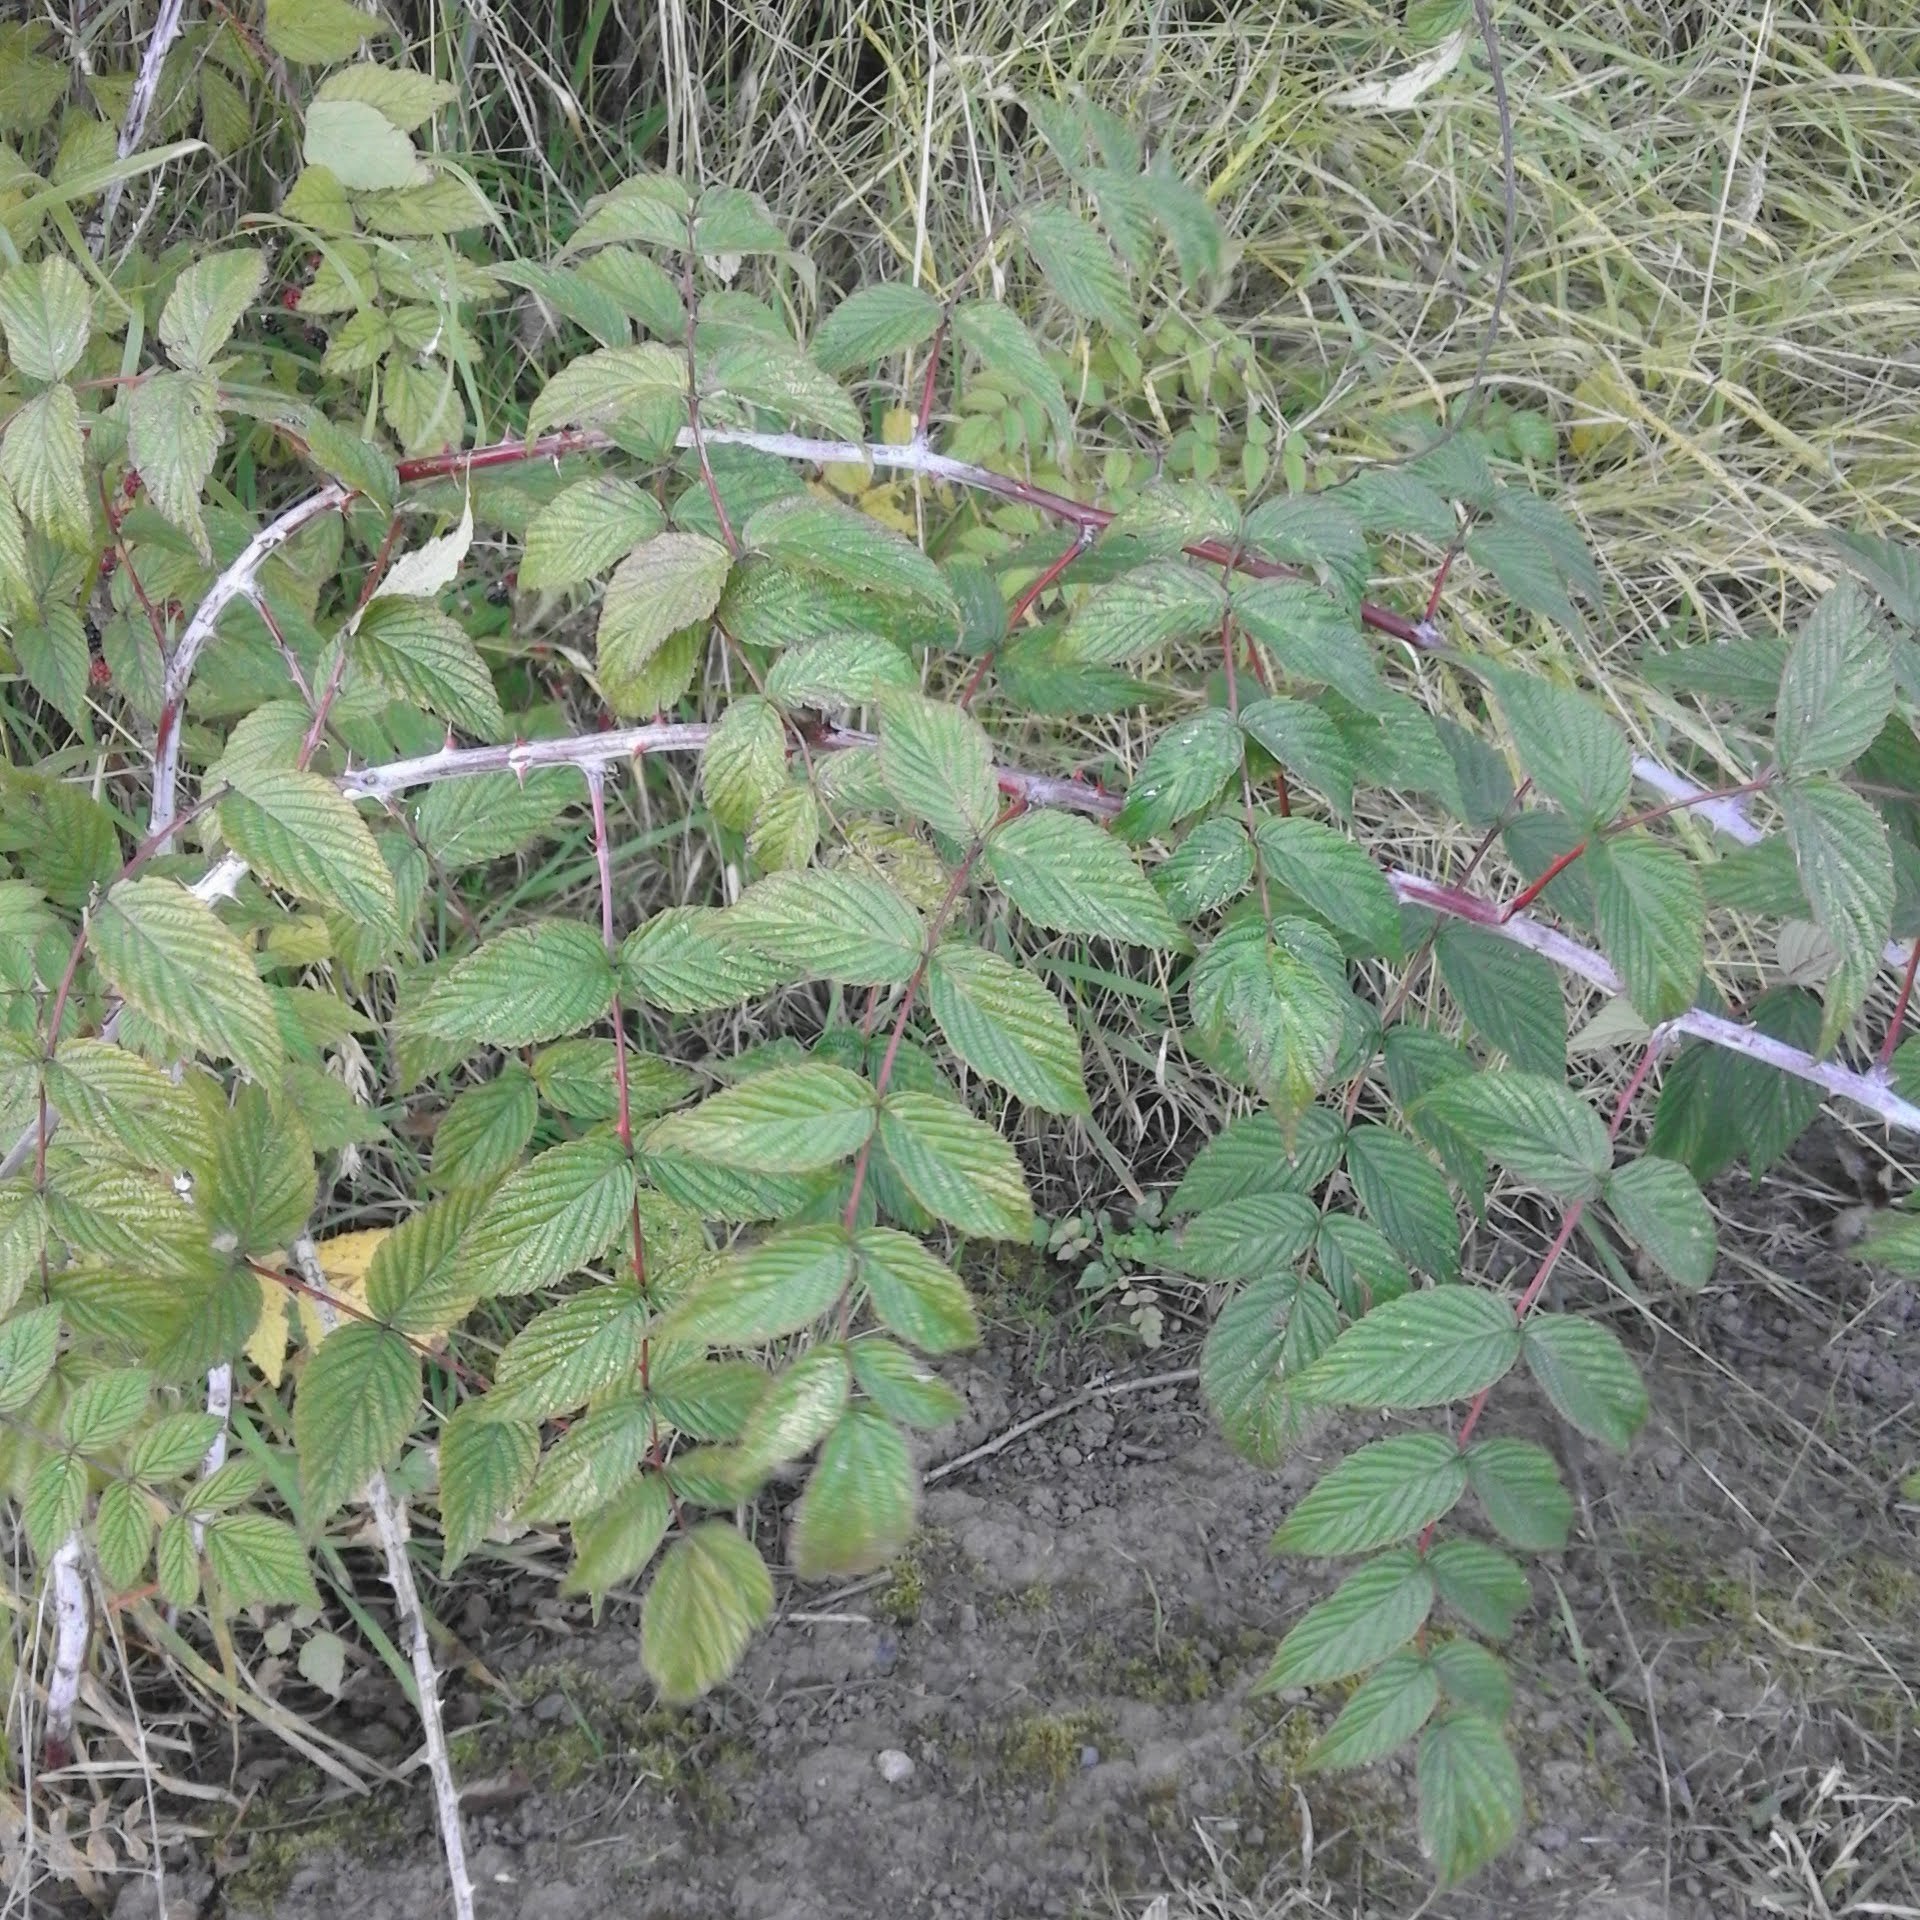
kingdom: Plantae
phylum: Tracheophyta
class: Magnoliopsida
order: Rosales
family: Rosaceae
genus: Rubus
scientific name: Rubus cockburnianus
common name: White-stemmed bramble
